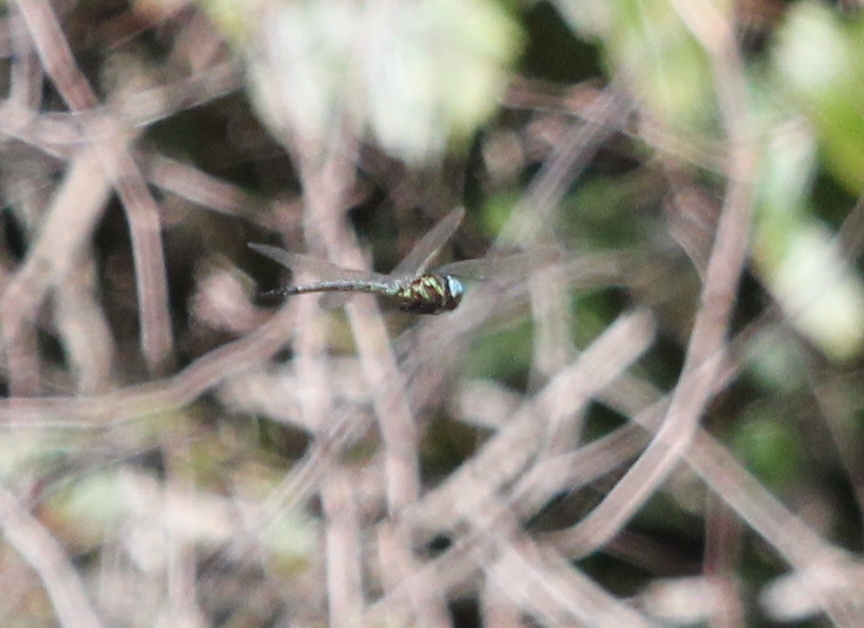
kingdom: Animalia
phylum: Arthropoda
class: Insecta
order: Odonata
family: Aeshnidae
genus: Nasiaeschna
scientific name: Nasiaeschna pentacantha
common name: Cyrano darner
